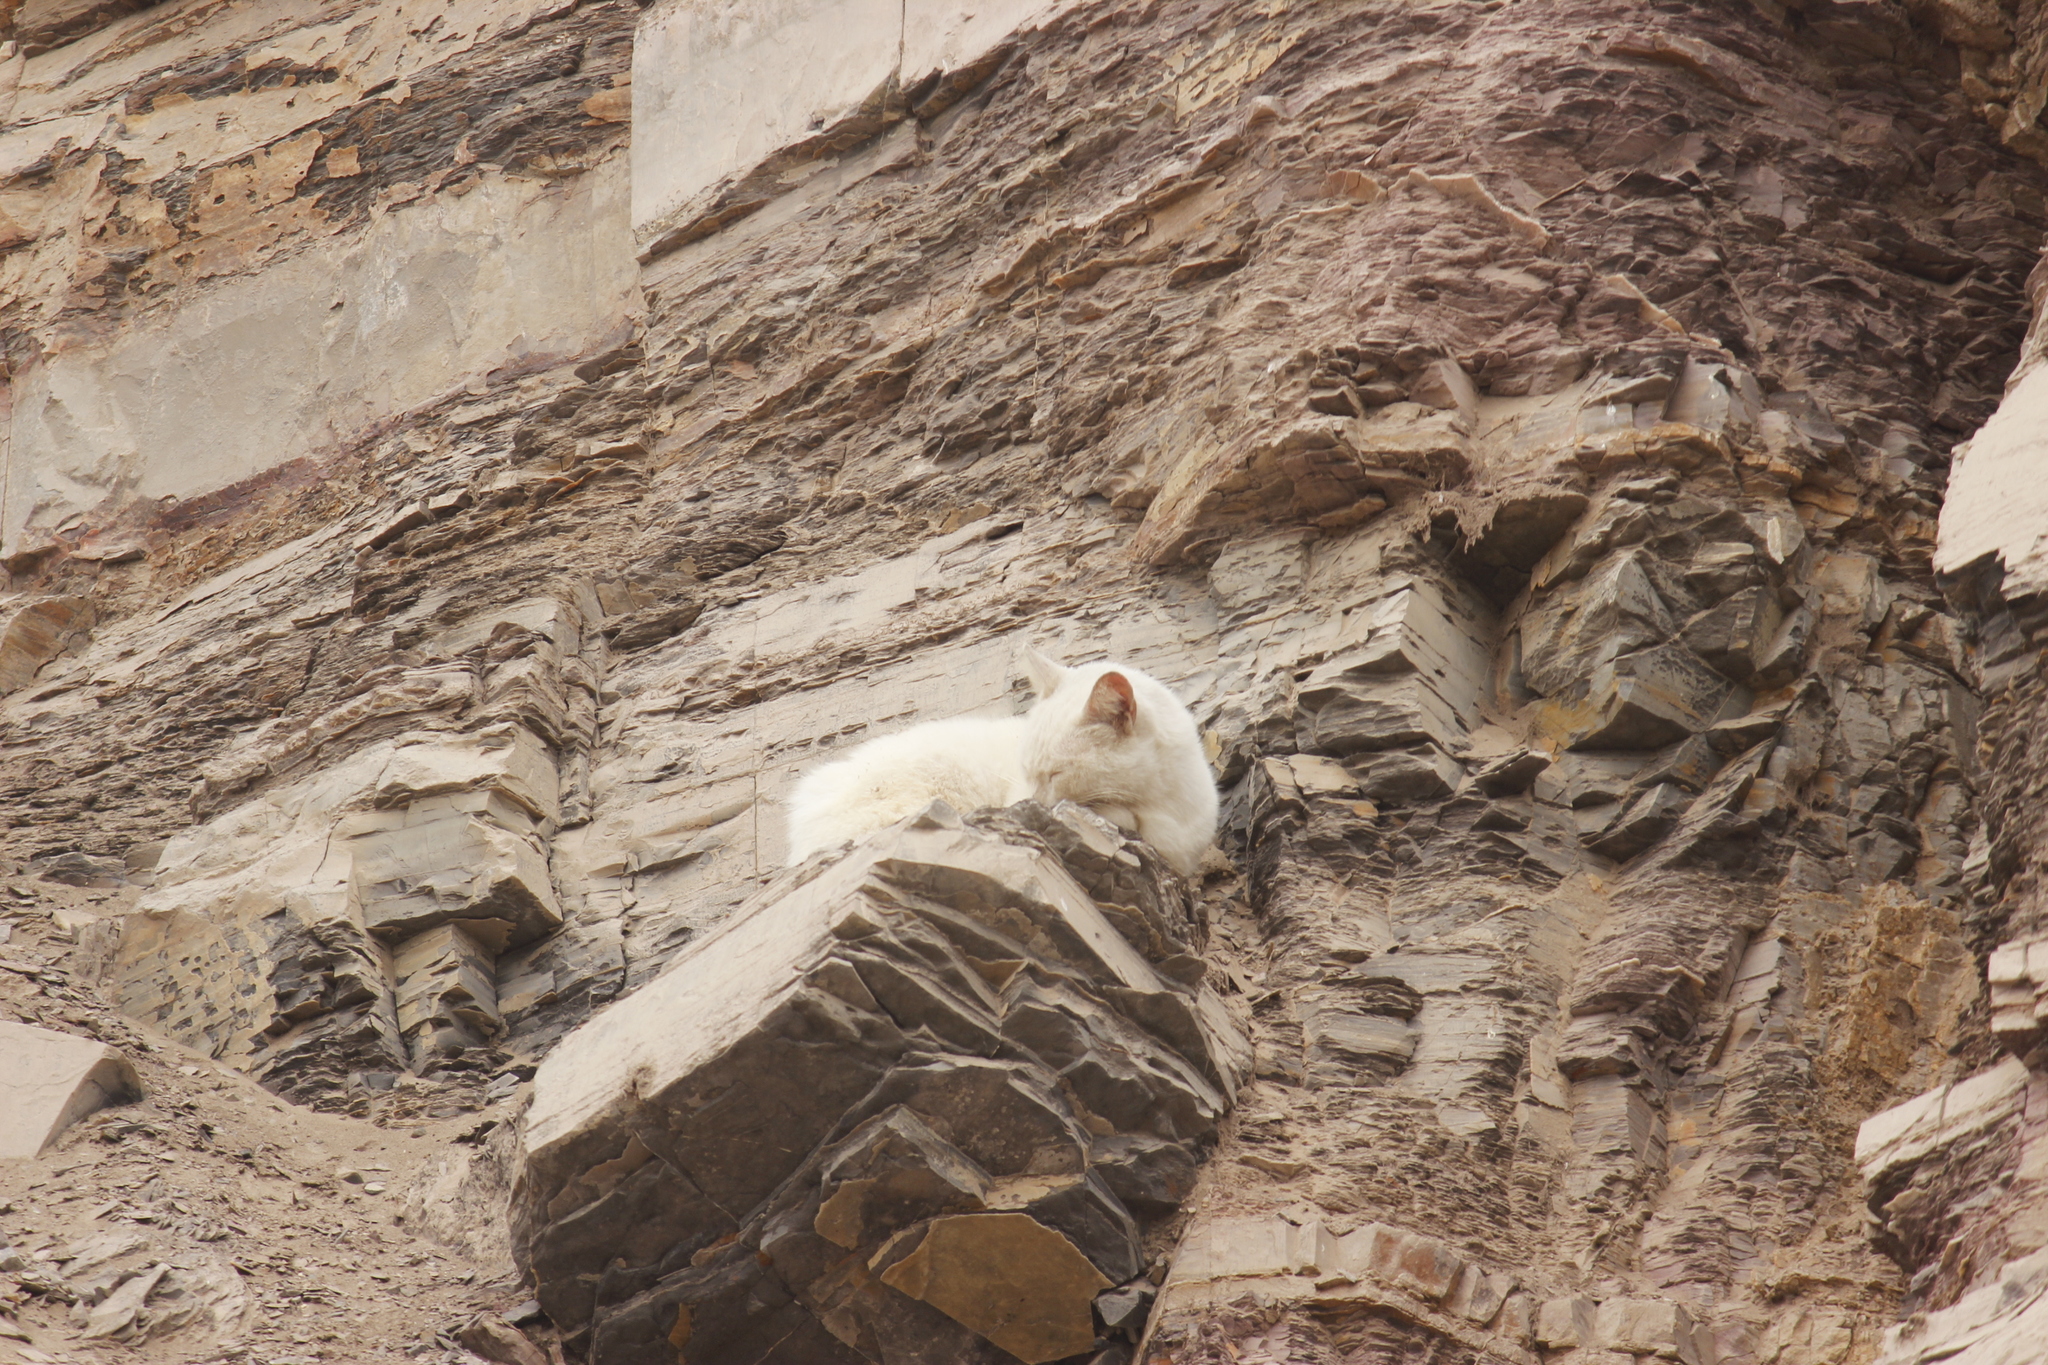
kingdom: Animalia
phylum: Chordata
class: Mammalia
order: Carnivora
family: Felidae
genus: Felis
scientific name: Felis catus
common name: Domestic cat
